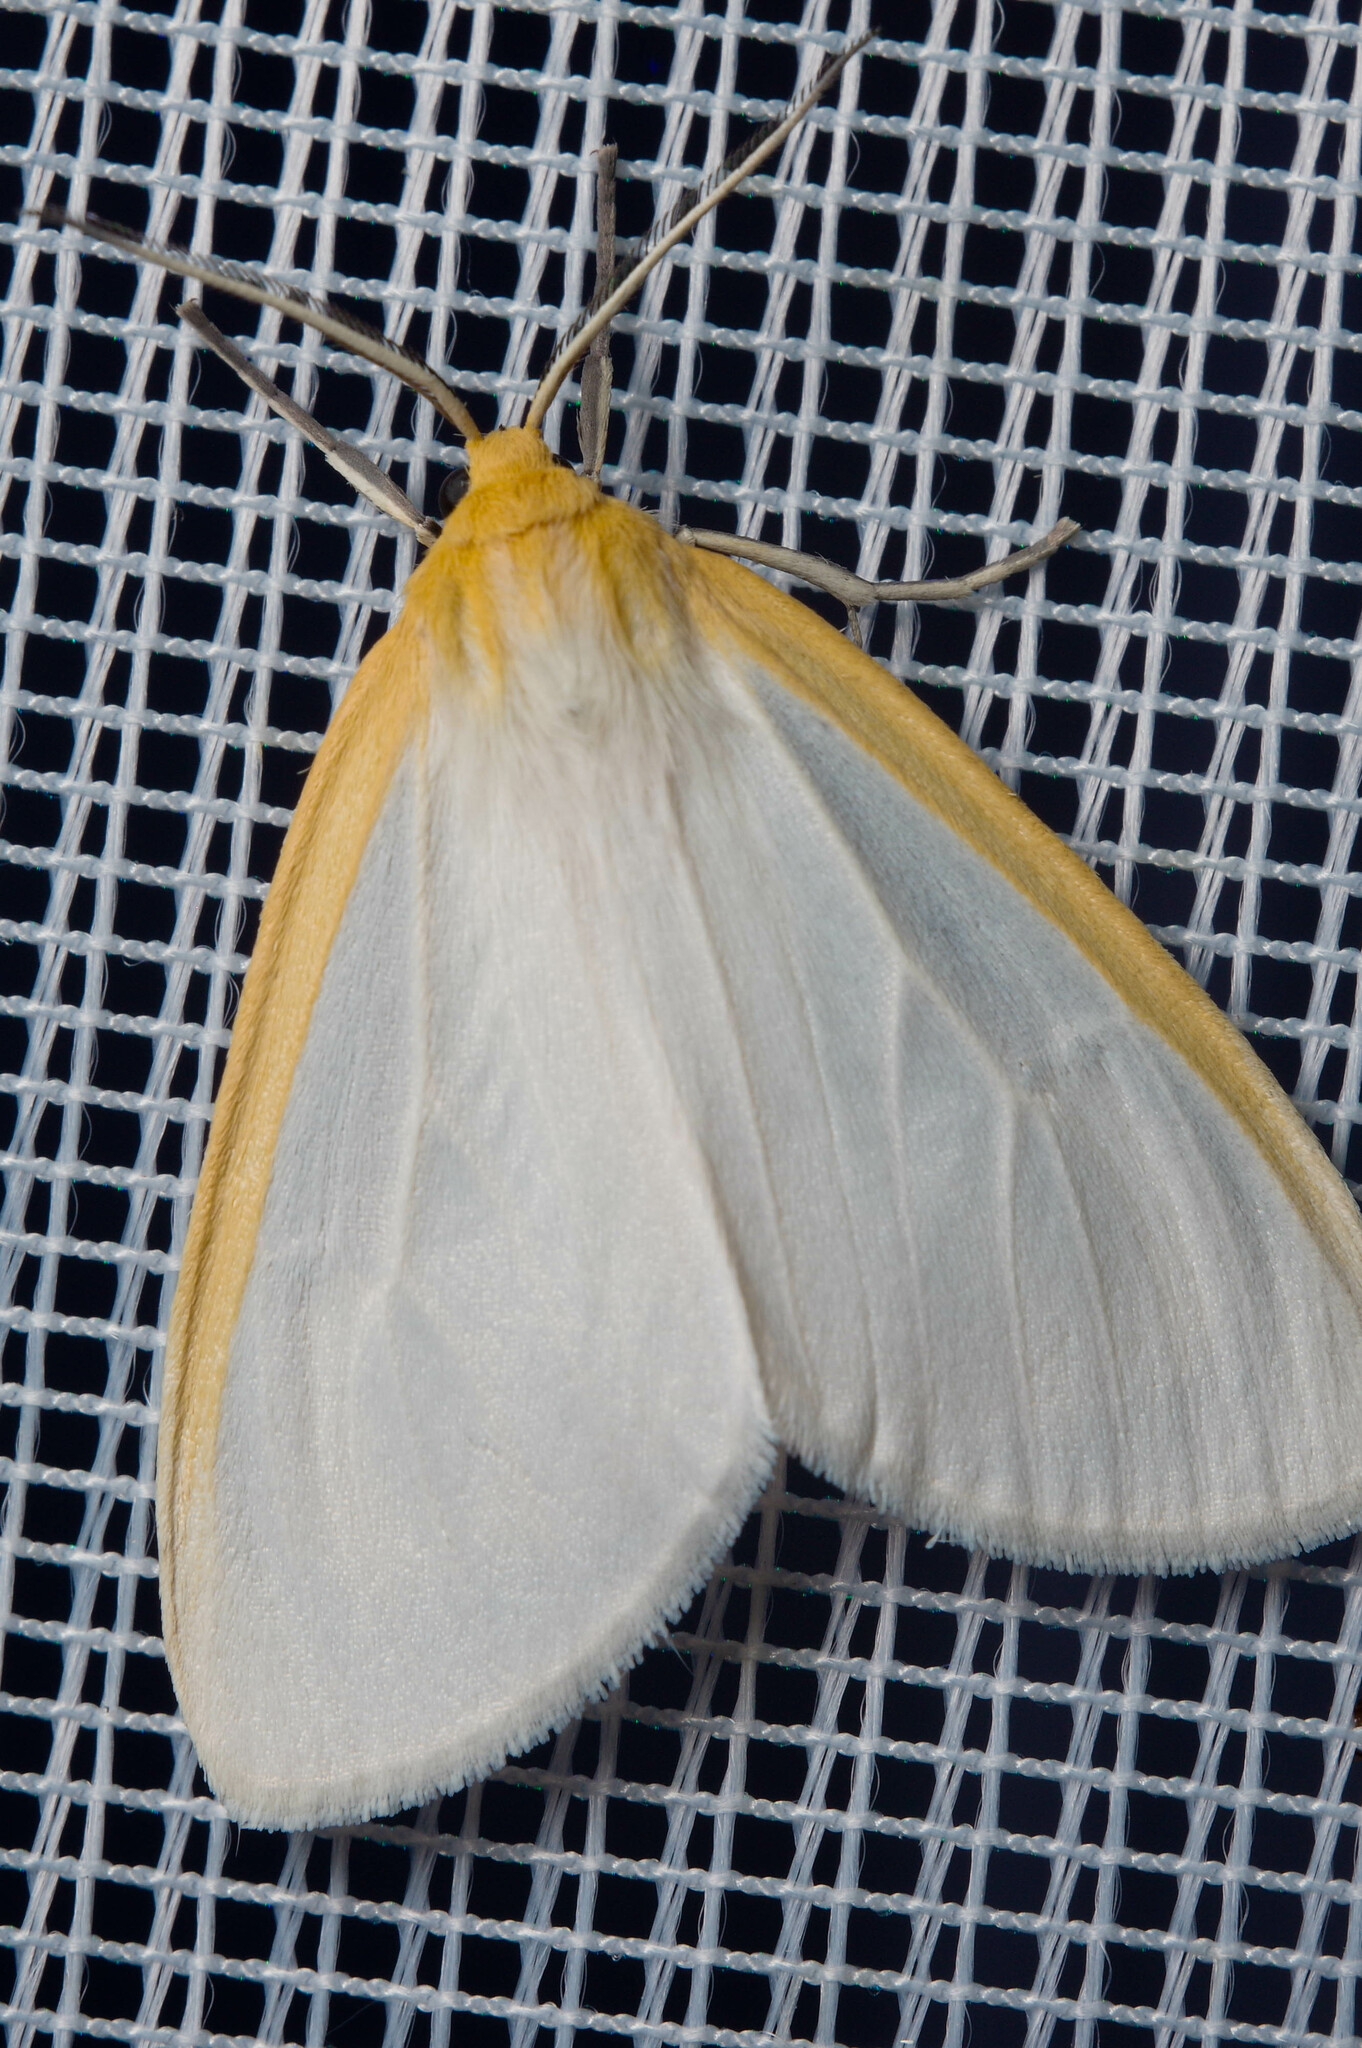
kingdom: Animalia
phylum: Arthropoda
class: Insecta
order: Lepidoptera
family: Erebidae
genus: Cycnia
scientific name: Cycnia tenera
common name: Delicate cycnia moth
